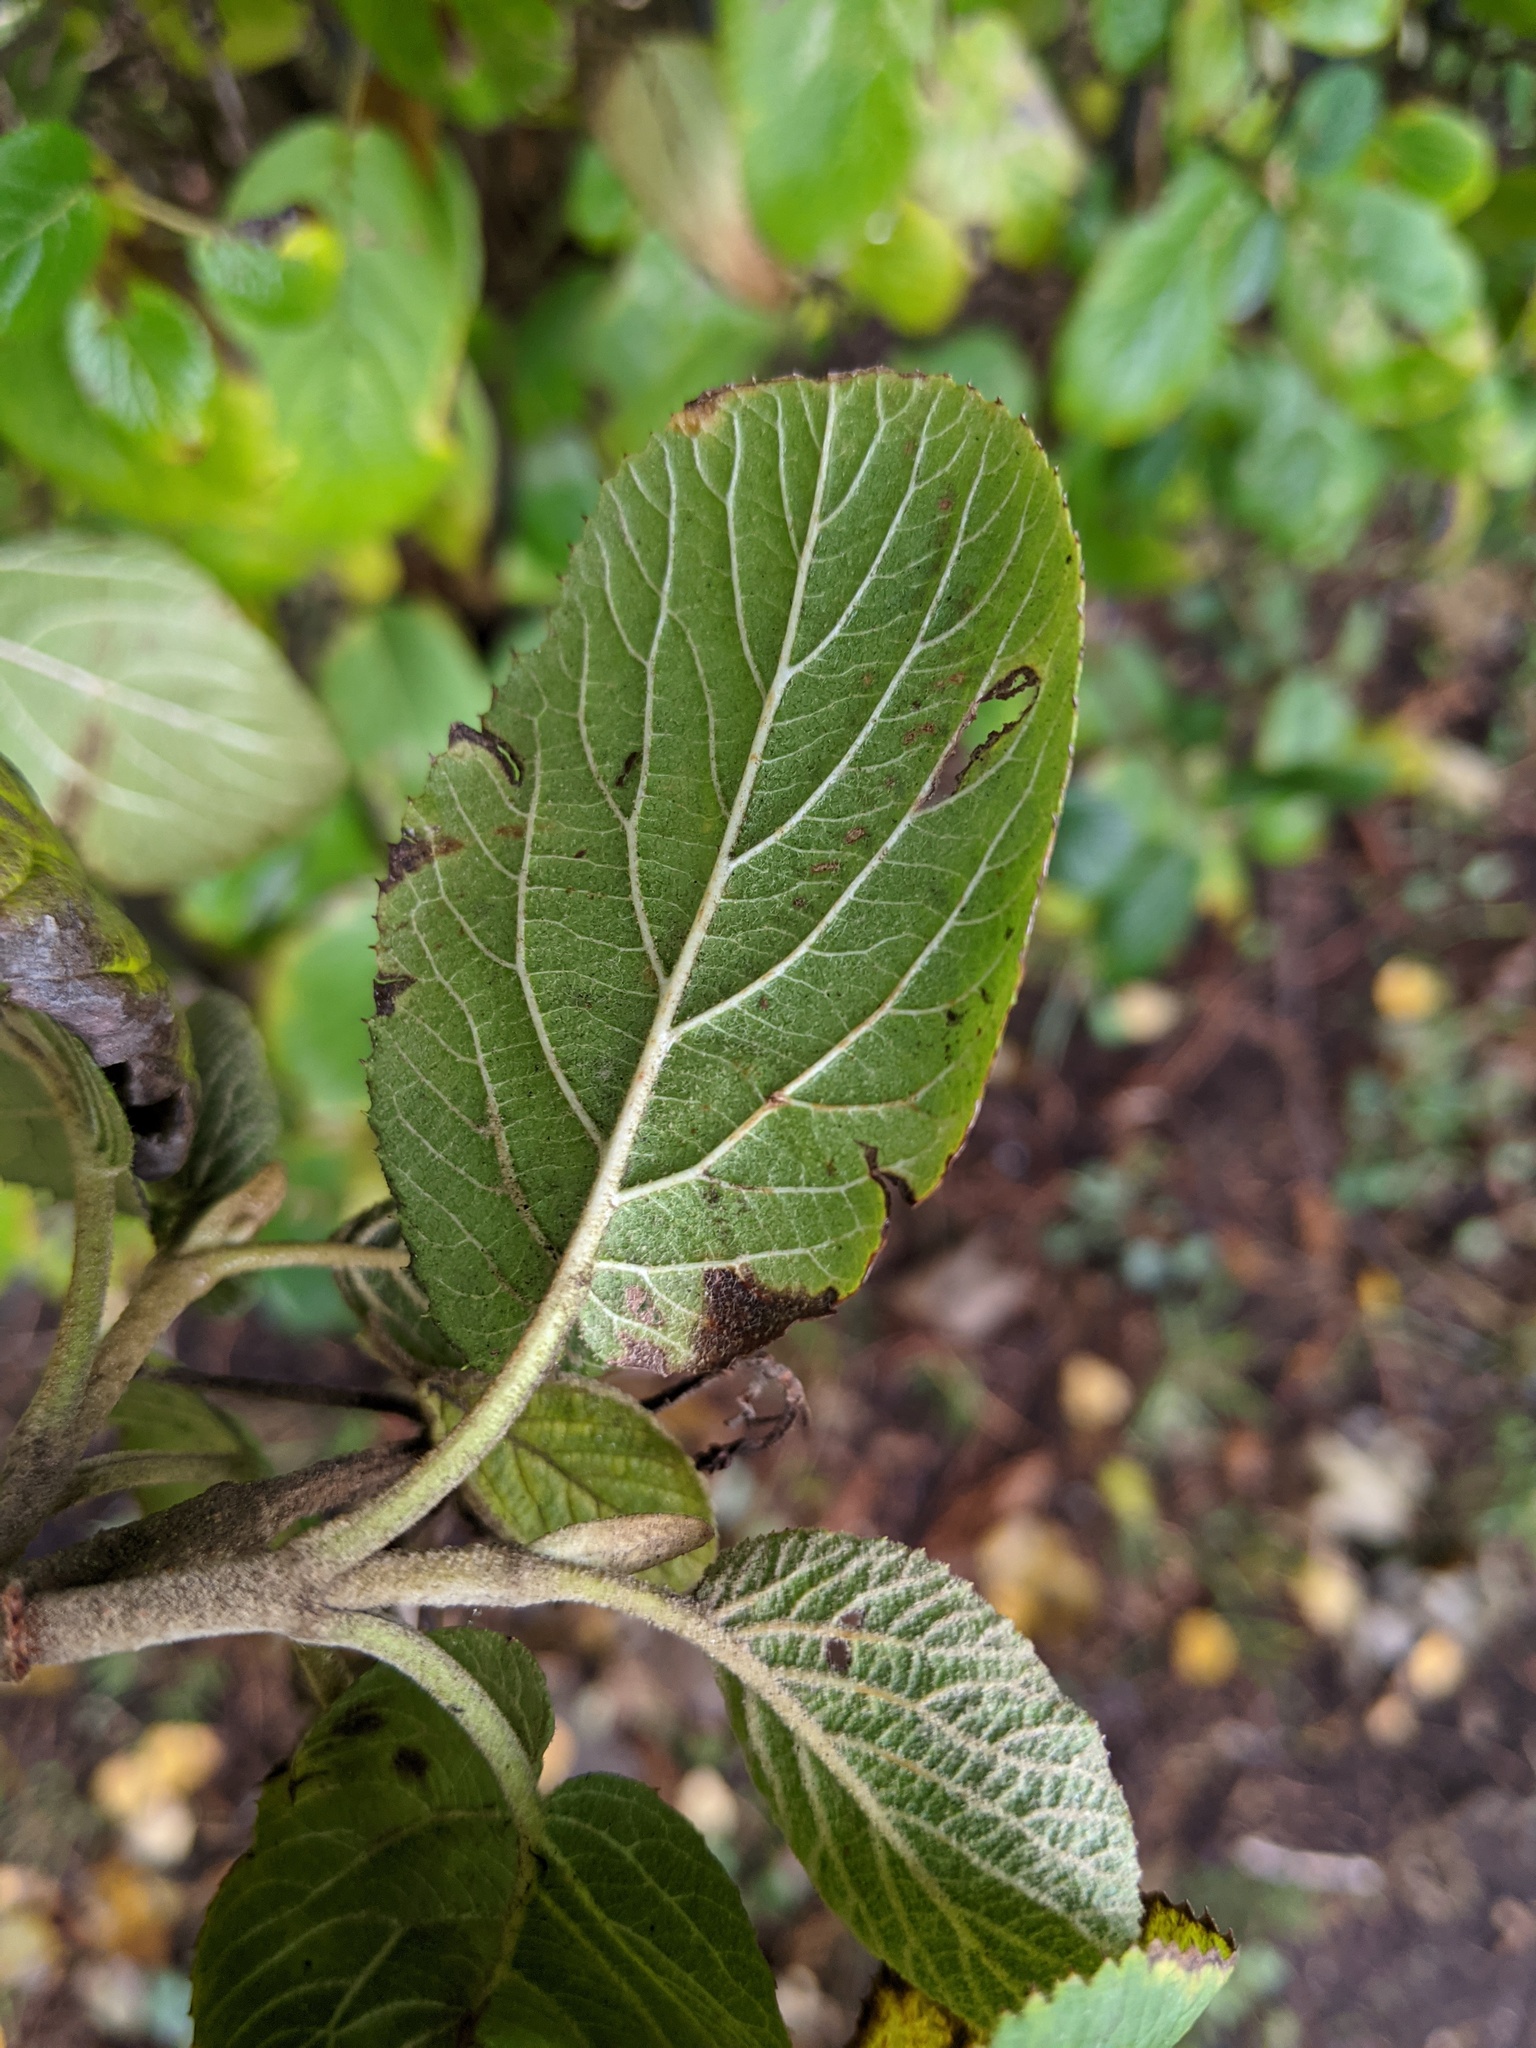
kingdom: Plantae
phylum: Tracheophyta
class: Magnoliopsida
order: Dipsacales
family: Viburnaceae
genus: Viburnum
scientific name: Viburnum lantana
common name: Wayfaring tree
